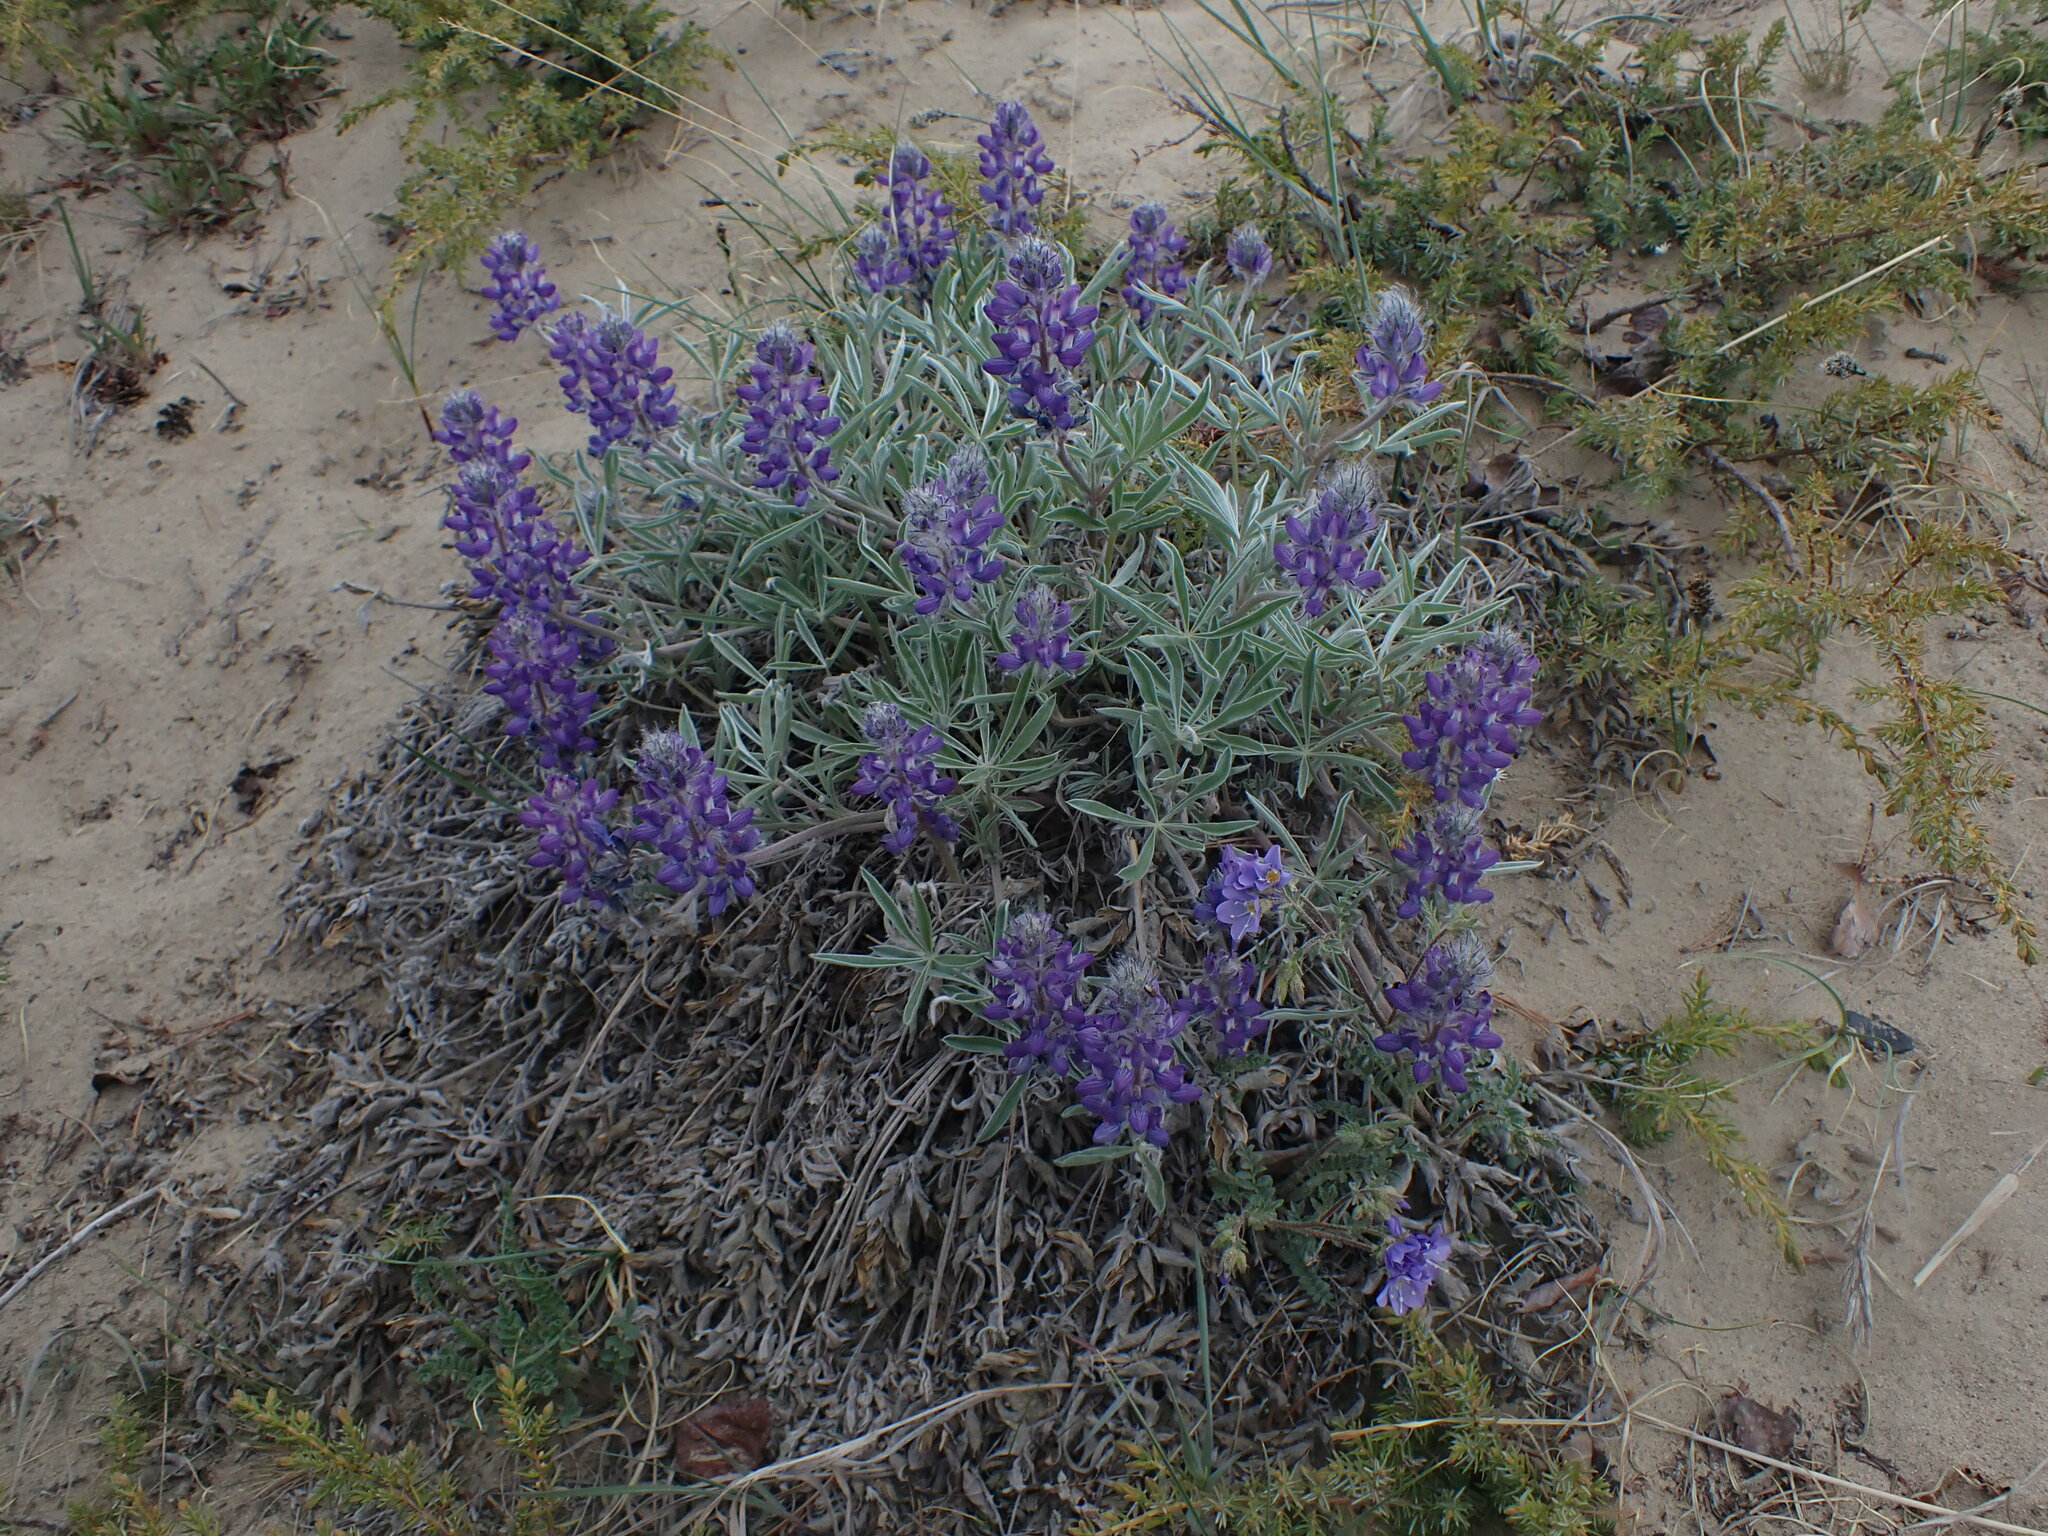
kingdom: Plantae
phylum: Tracheophyta
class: Magnoliopsida
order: Fabales
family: Fabaceae
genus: Lupinus
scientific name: Lupinus kuschei
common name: Kusche's lupine
